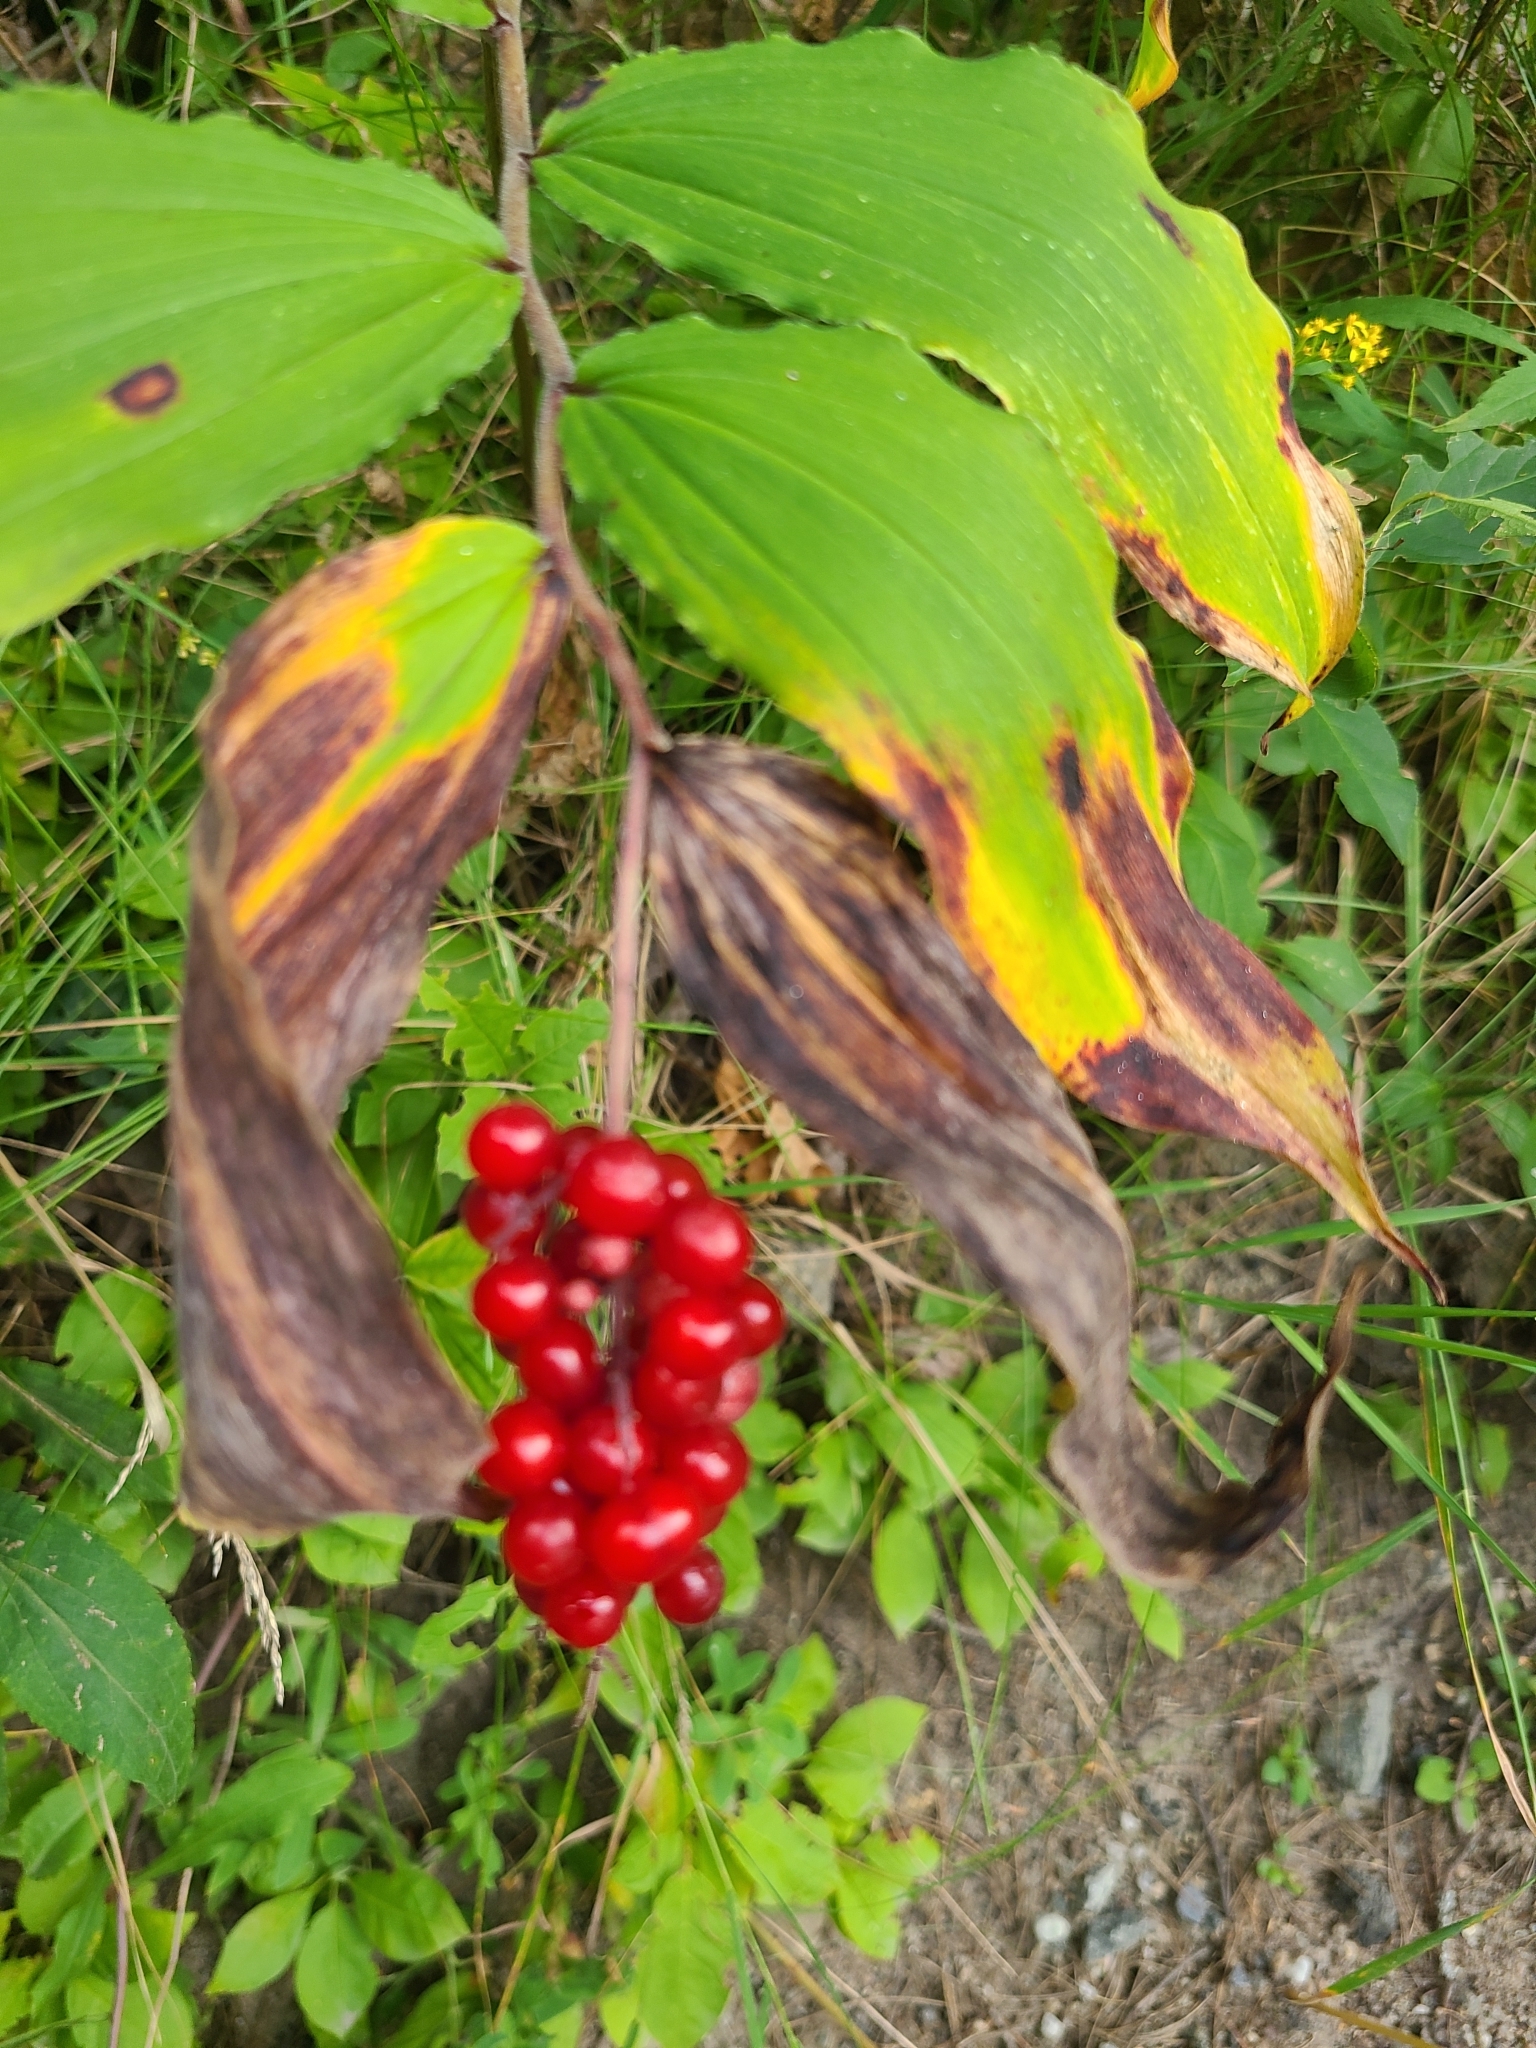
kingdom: Plantae
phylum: Tracheophyta
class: Liliopsida
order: Asparagales
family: Asparagaceae
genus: Maianthemum
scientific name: Maianthemum racemosum
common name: False spikenard
